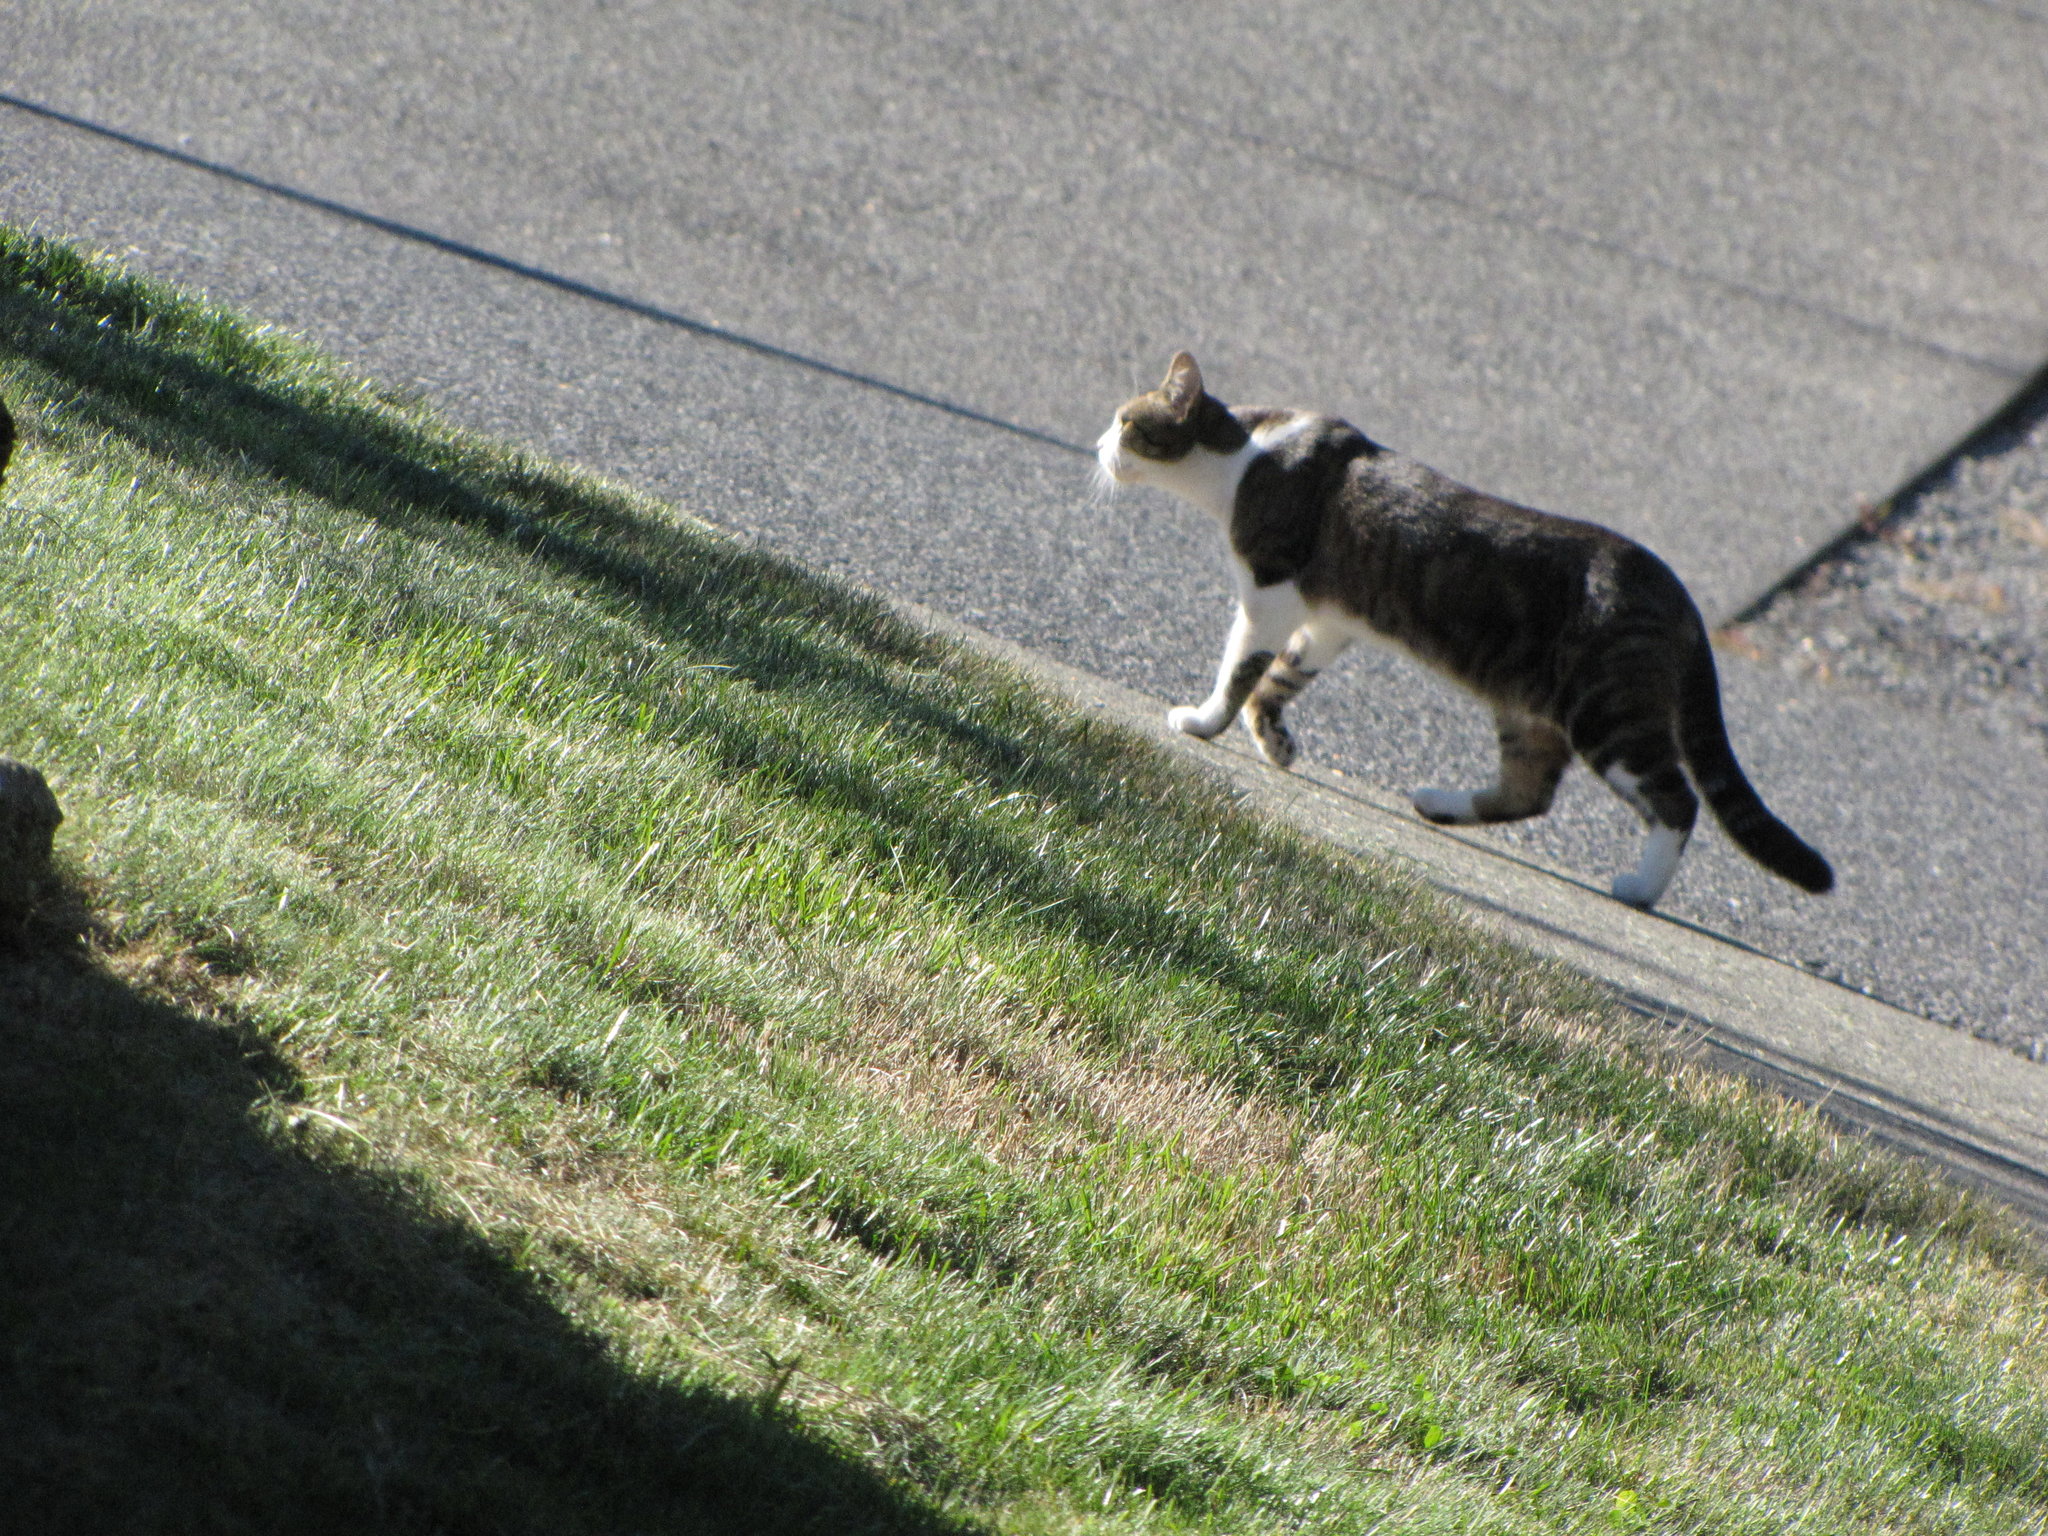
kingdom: Animalia
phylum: Chordata
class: Mammalia
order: Carnivora
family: Felidae
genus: Felis
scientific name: Felis catus
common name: Domestic cat
